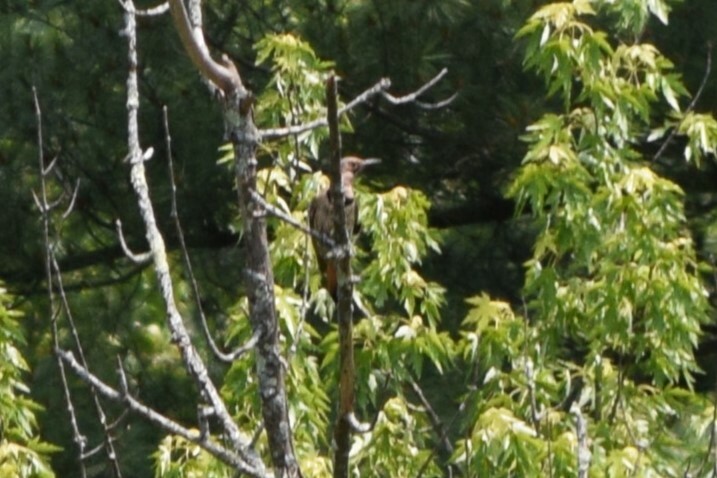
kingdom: Animalia
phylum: Chordata
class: Aves
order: Piciformes
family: Picidae
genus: Colaptes
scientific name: Colaptes auratus
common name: Northern flicker
